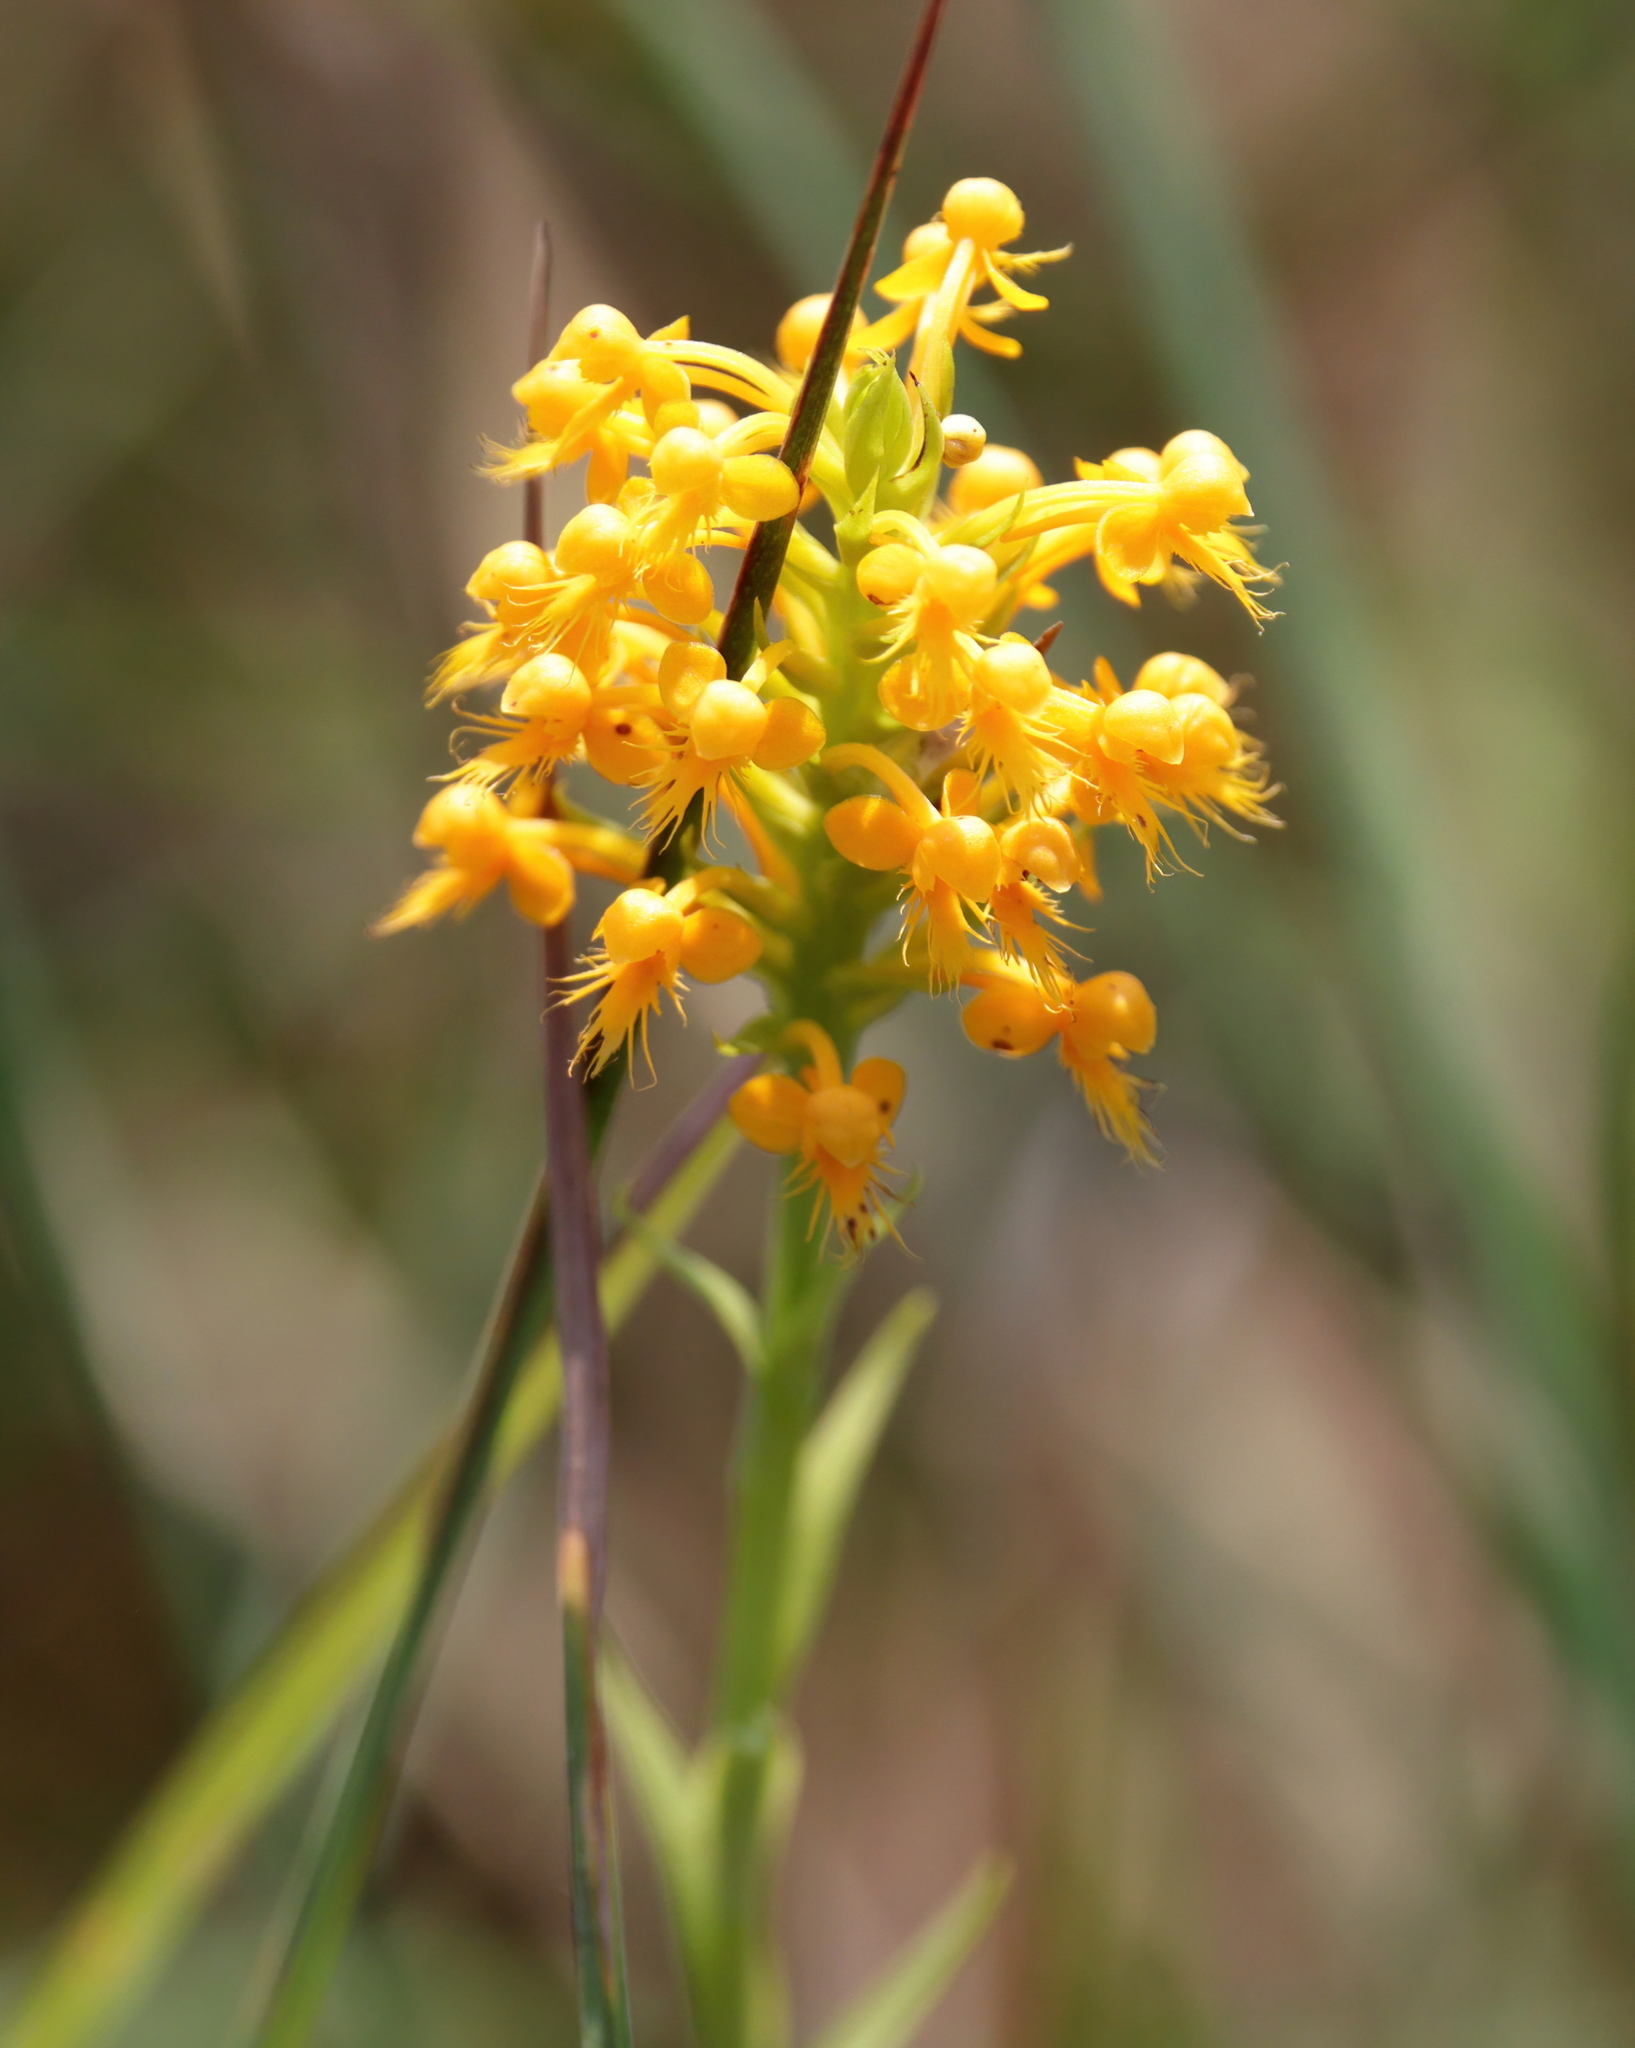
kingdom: Plantae
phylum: Tracheophyta
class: Liliopsida
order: Asparagales
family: Orchidaceae
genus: Platanthera
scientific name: Platanthera cristata
